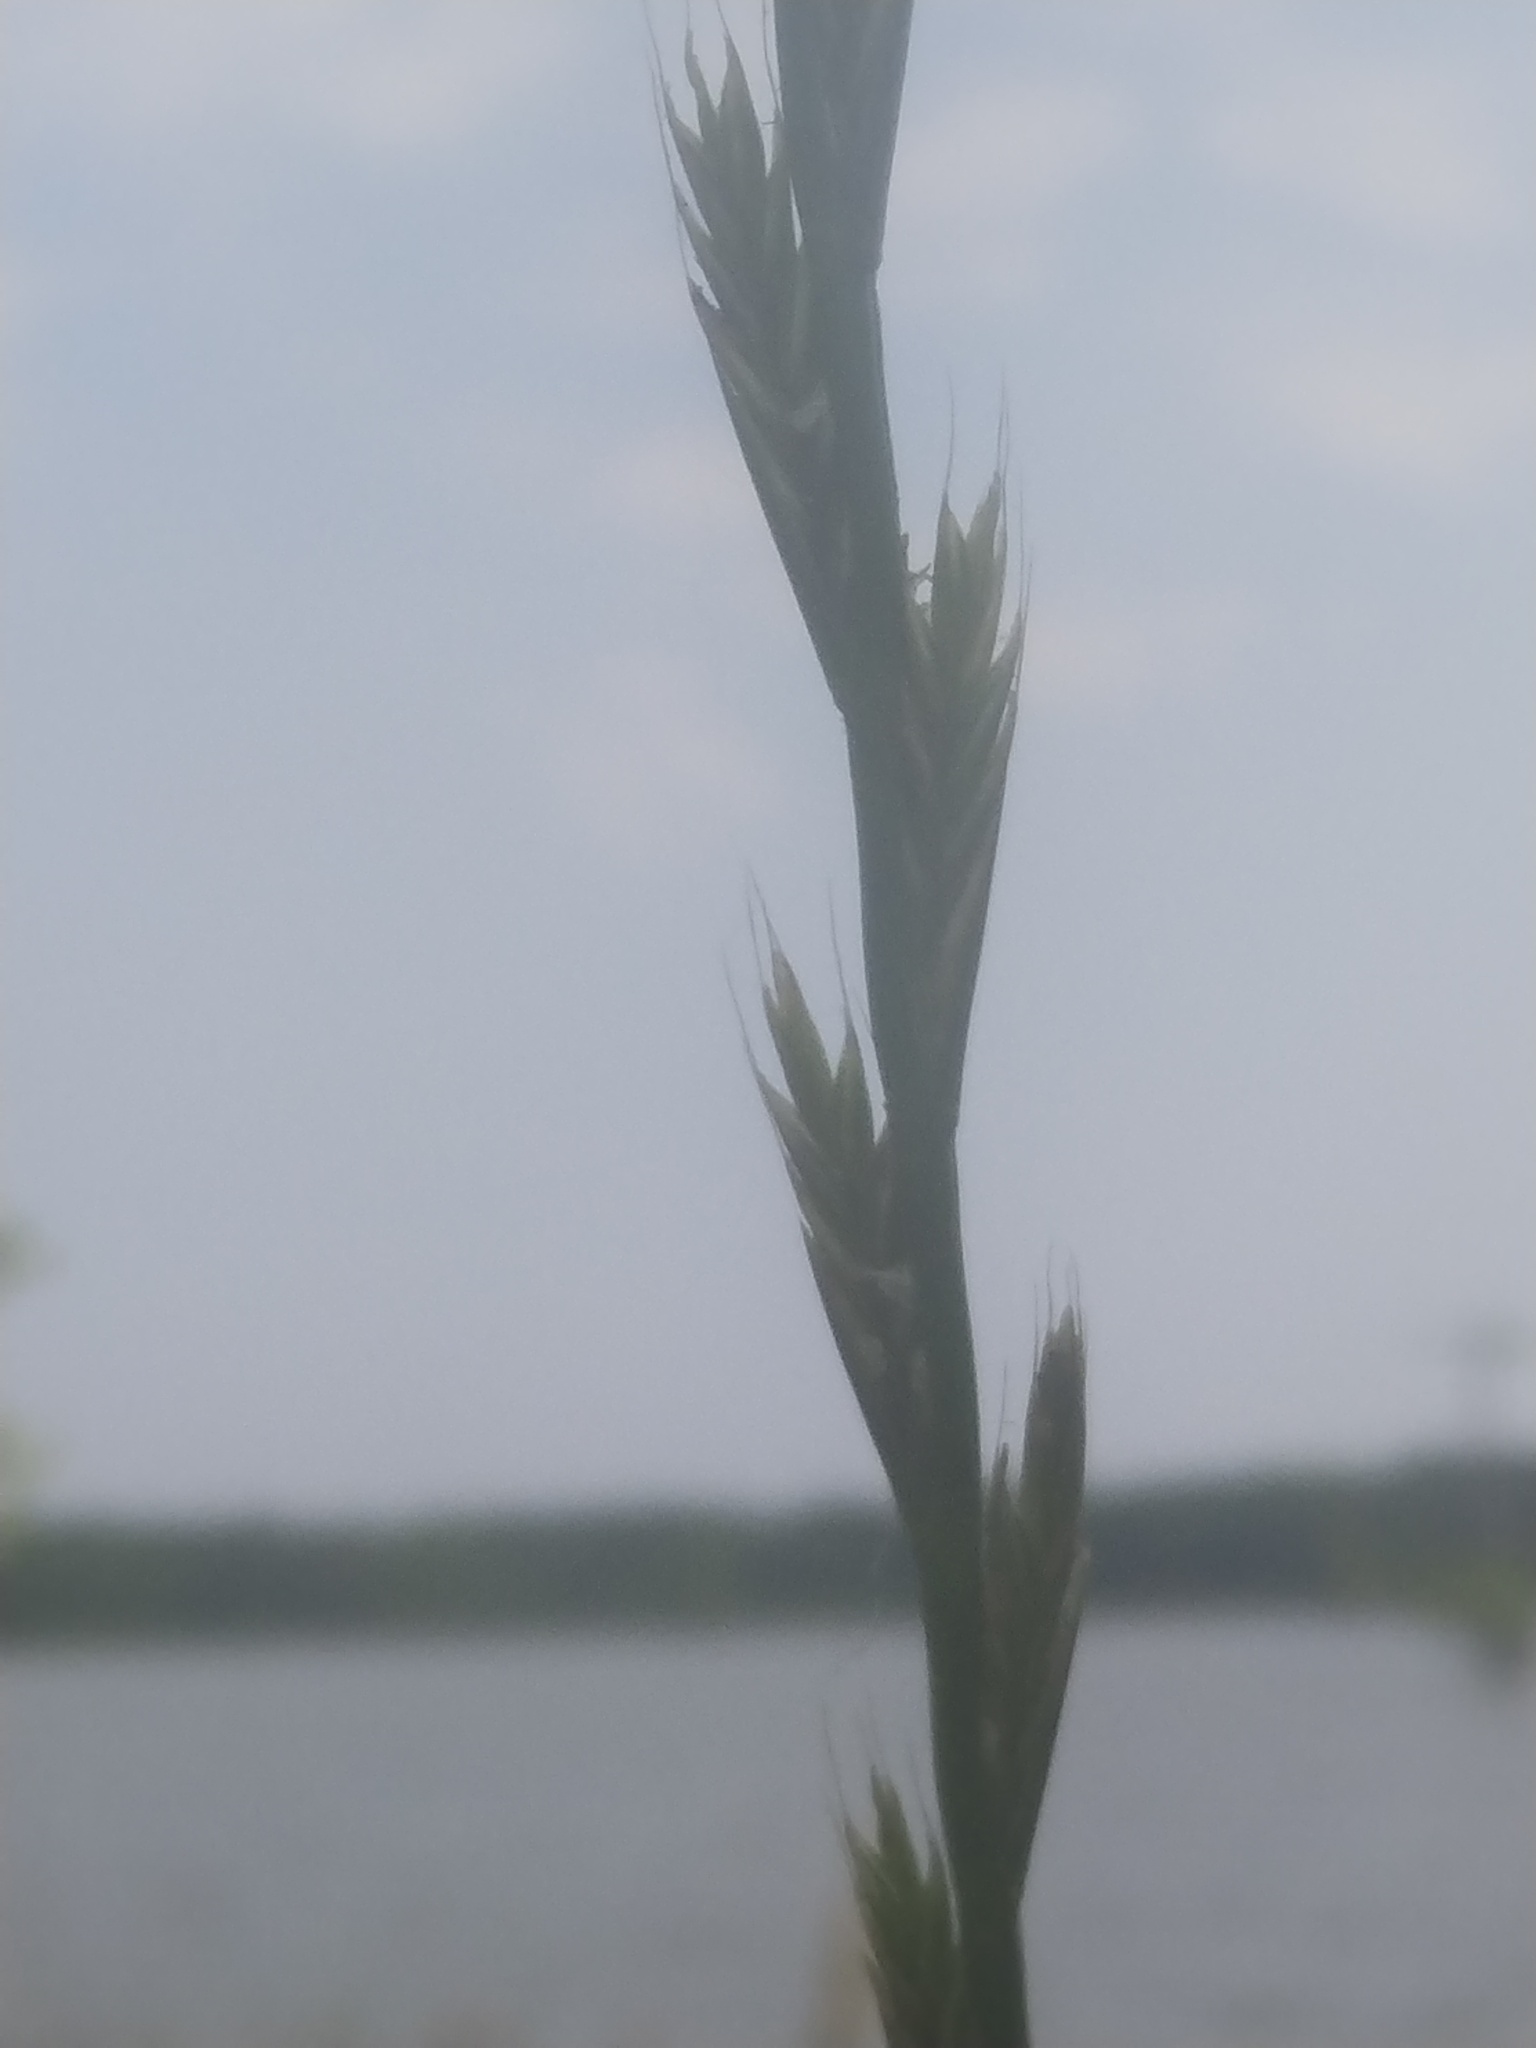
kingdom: Plantae
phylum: Tracheophyta
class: Liliopsida
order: Poales
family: Poaceae
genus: Lolium
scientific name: Lolium multiflorum
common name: Annual ryegrass
